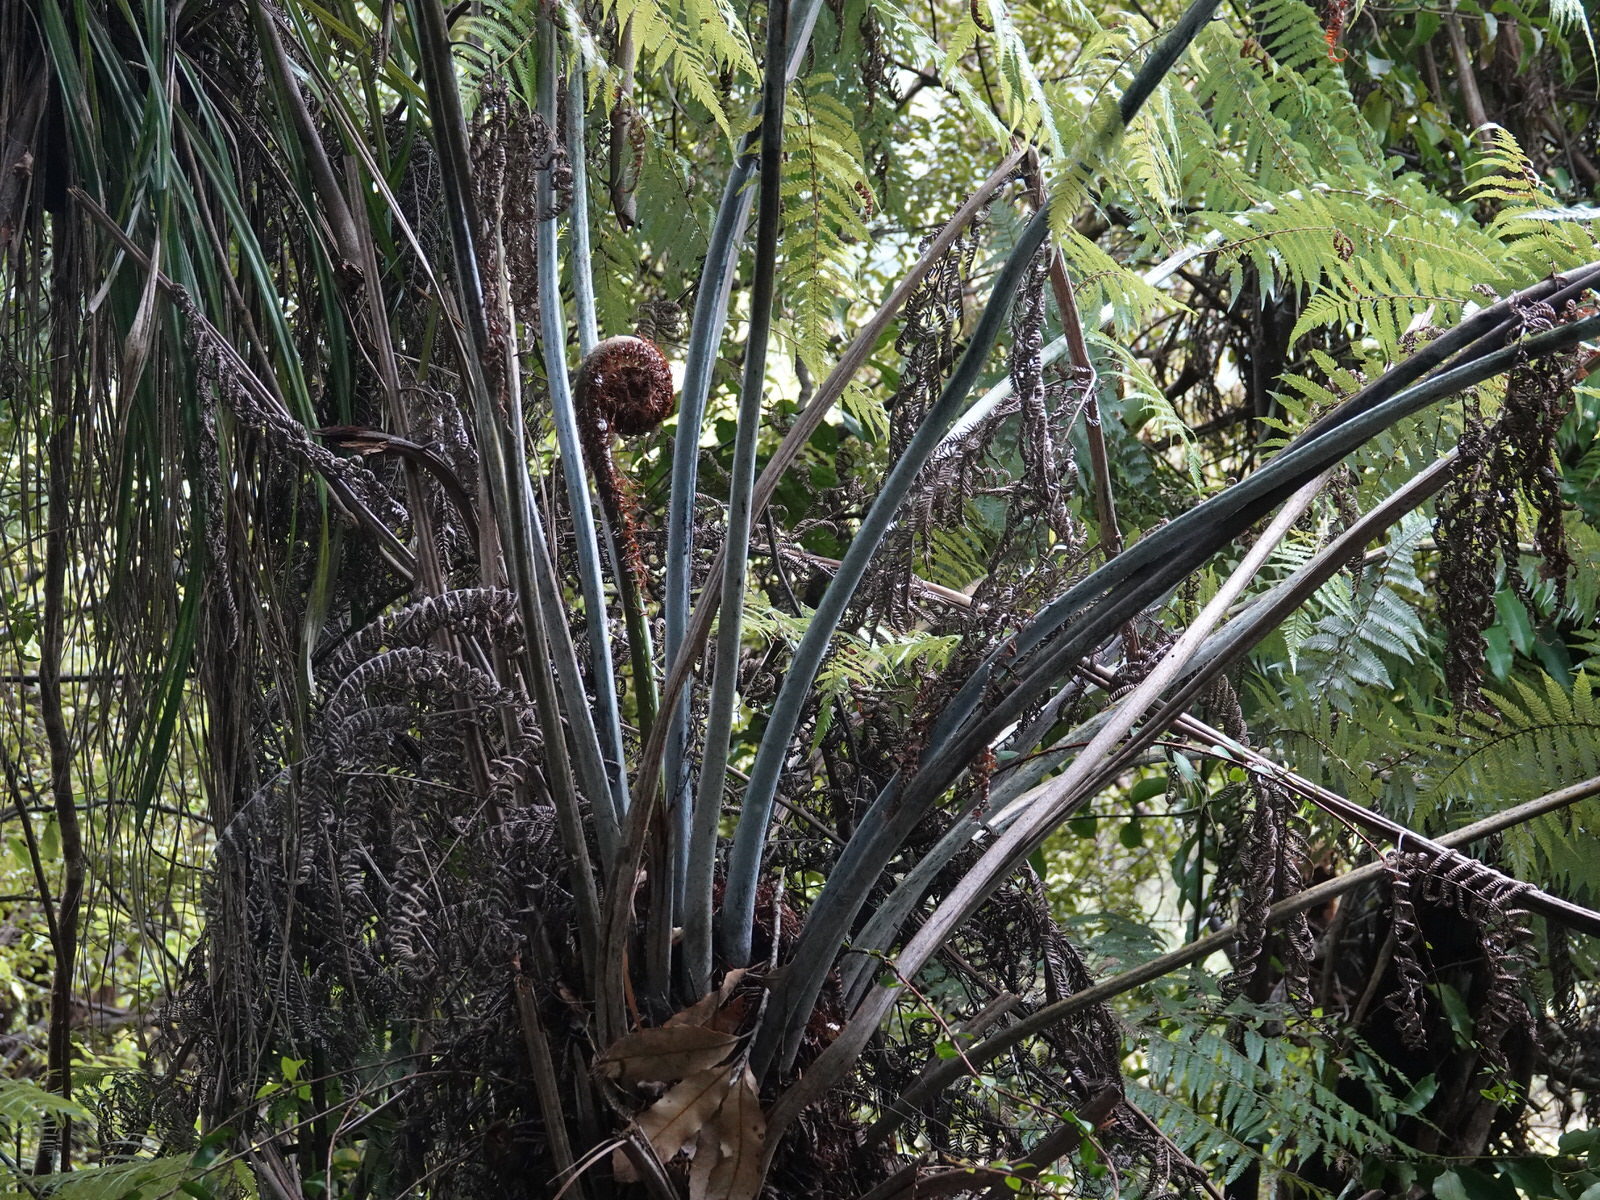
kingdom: Plantae
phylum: Tracheophyta
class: Polypodiopsida
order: Cyatheales
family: Cyatheaceae
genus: Alsophila
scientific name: Alsophila dealbata
